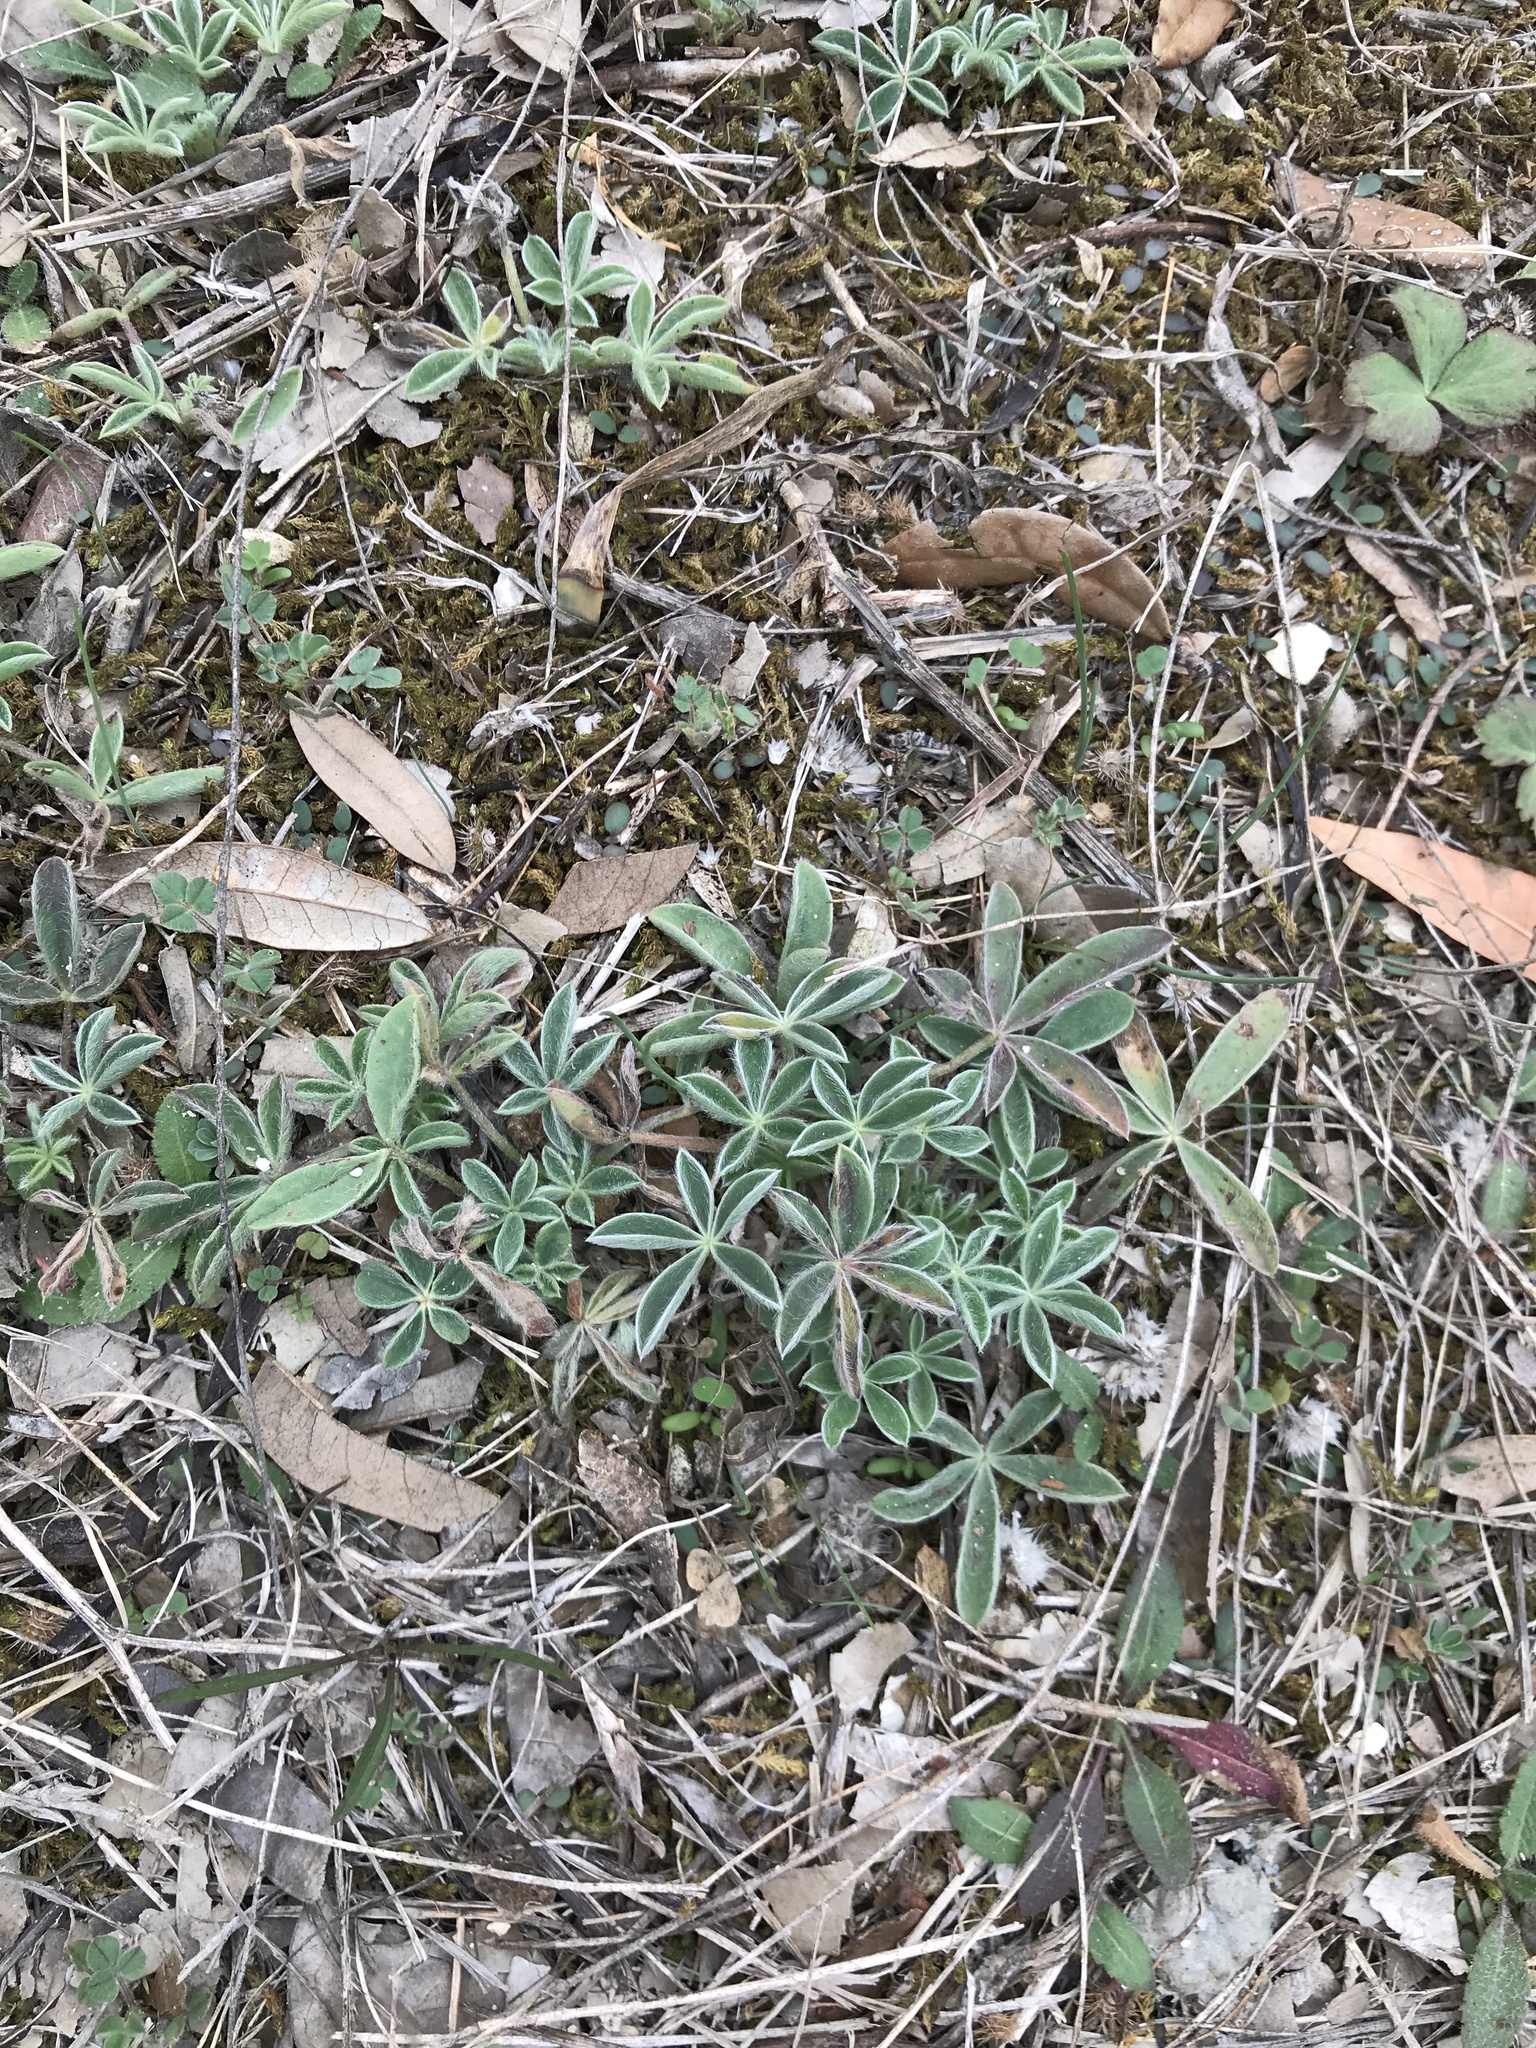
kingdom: Plantae
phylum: Tracheophyta
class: Magnoliopsida
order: Fabales
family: Fabaceae
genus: Lupinus
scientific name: Lupinus texensis
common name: Texas bluebonnet
